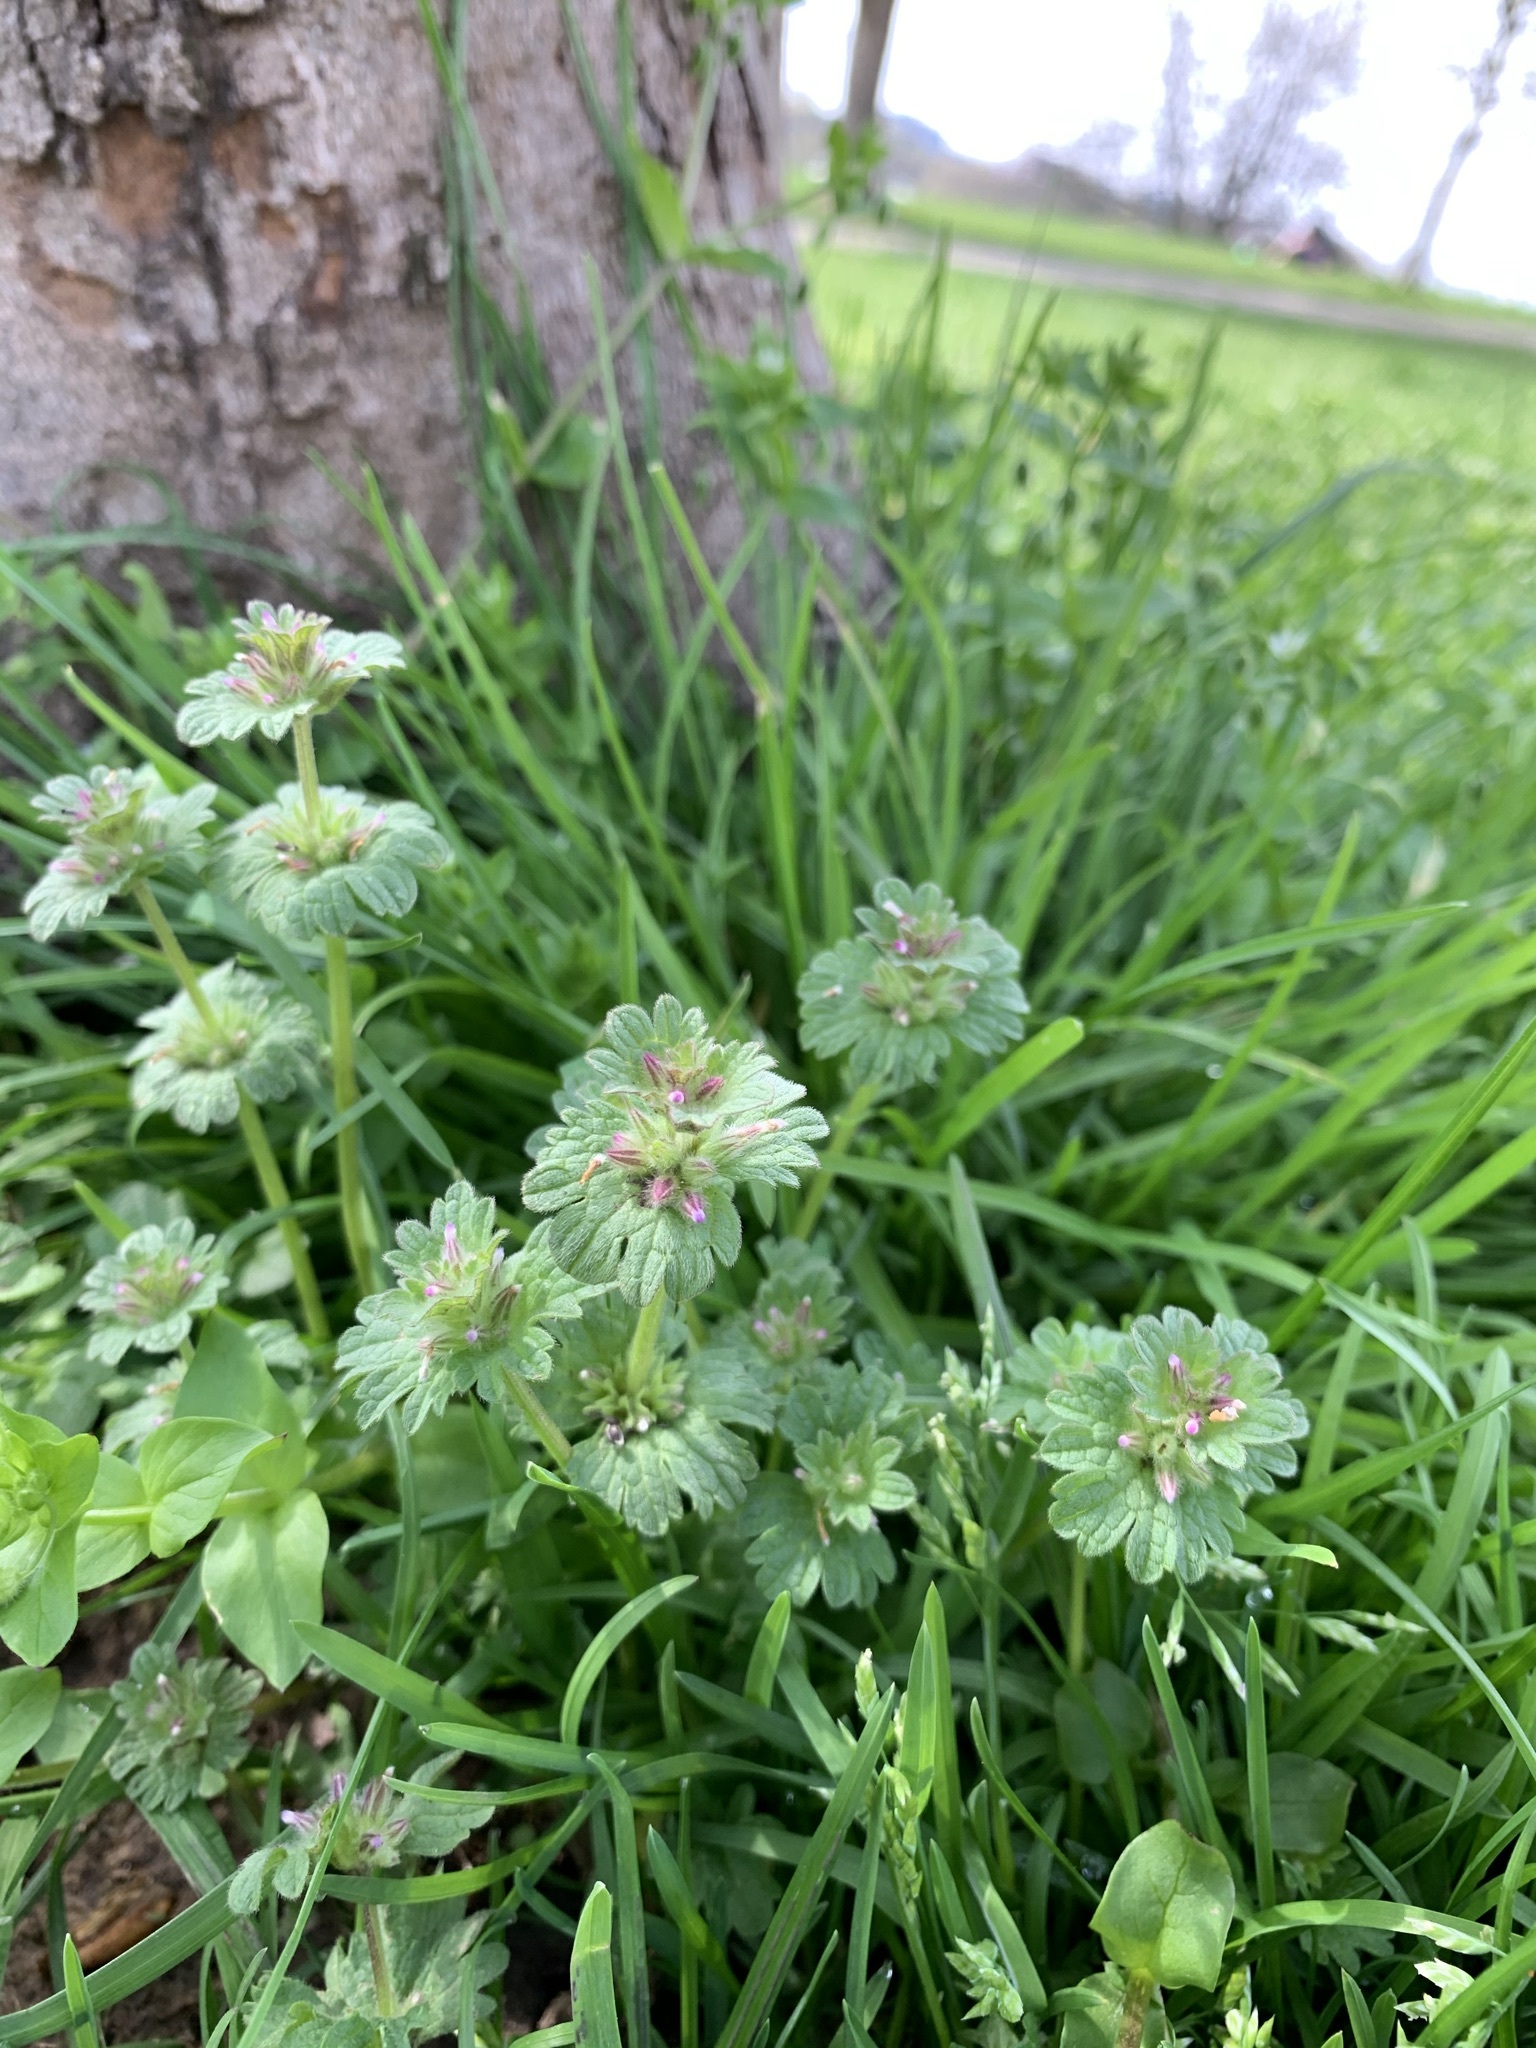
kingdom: Plantae
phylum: Tracheophyta
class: Magnoliopsida
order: Lamiales
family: Lamiaceae
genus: Lamium
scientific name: Lamium amplexicaule
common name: Henbit dead-nettle
